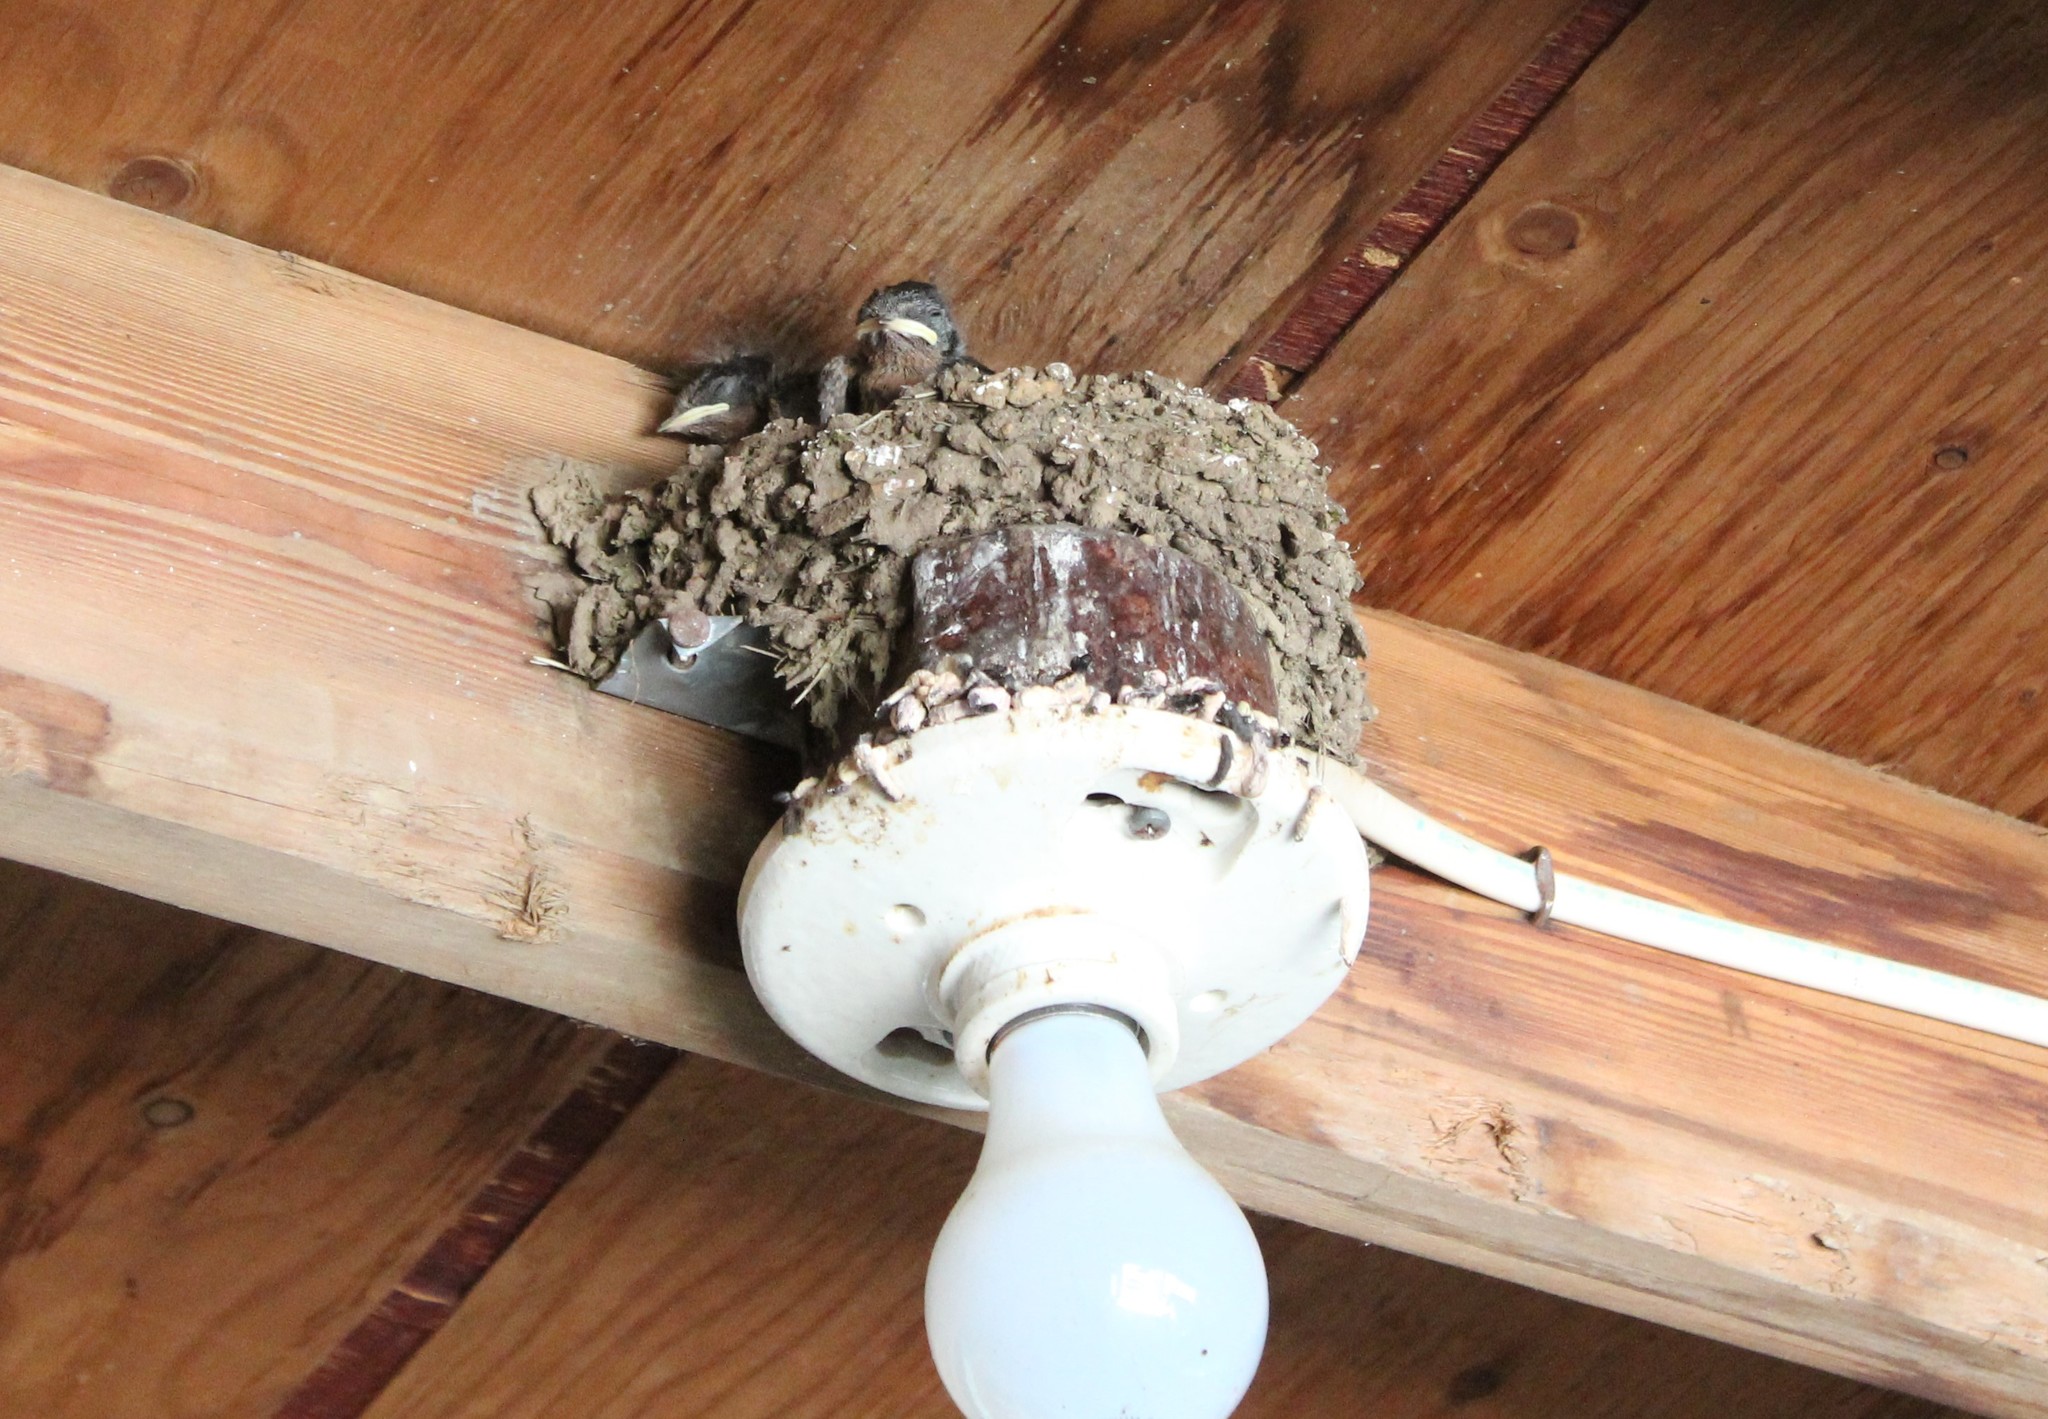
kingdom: Animalia
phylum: Chordata
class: Aves
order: Passeriformes
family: Hirundinidae
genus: Hirundo
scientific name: Hirundo rustica
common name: Barn swallow
